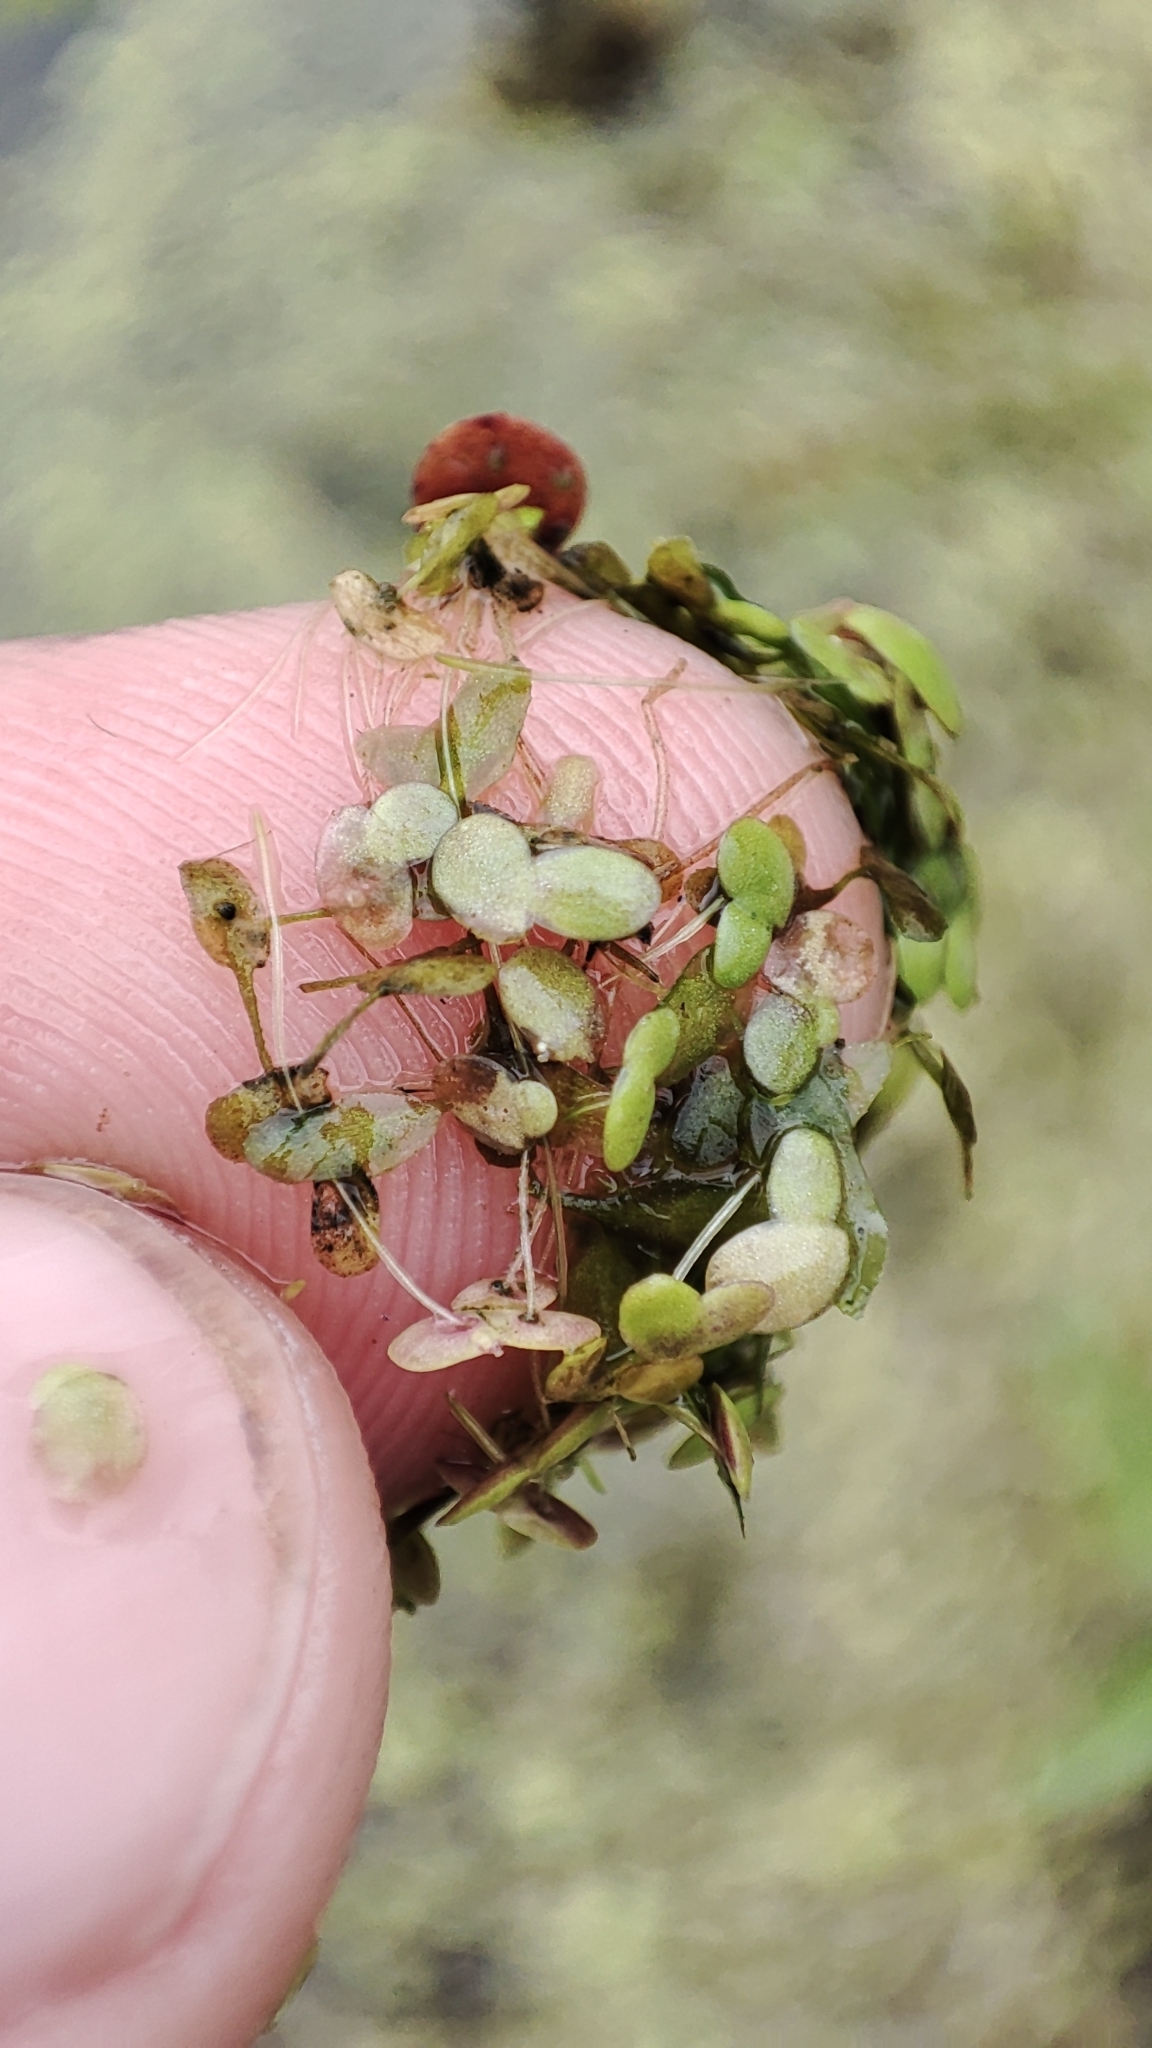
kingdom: Plantae
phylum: Tracheophyta
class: Liliopsida
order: Alismatales
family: Araceae
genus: Lemna
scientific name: Lemna minor
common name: Common duckweed
